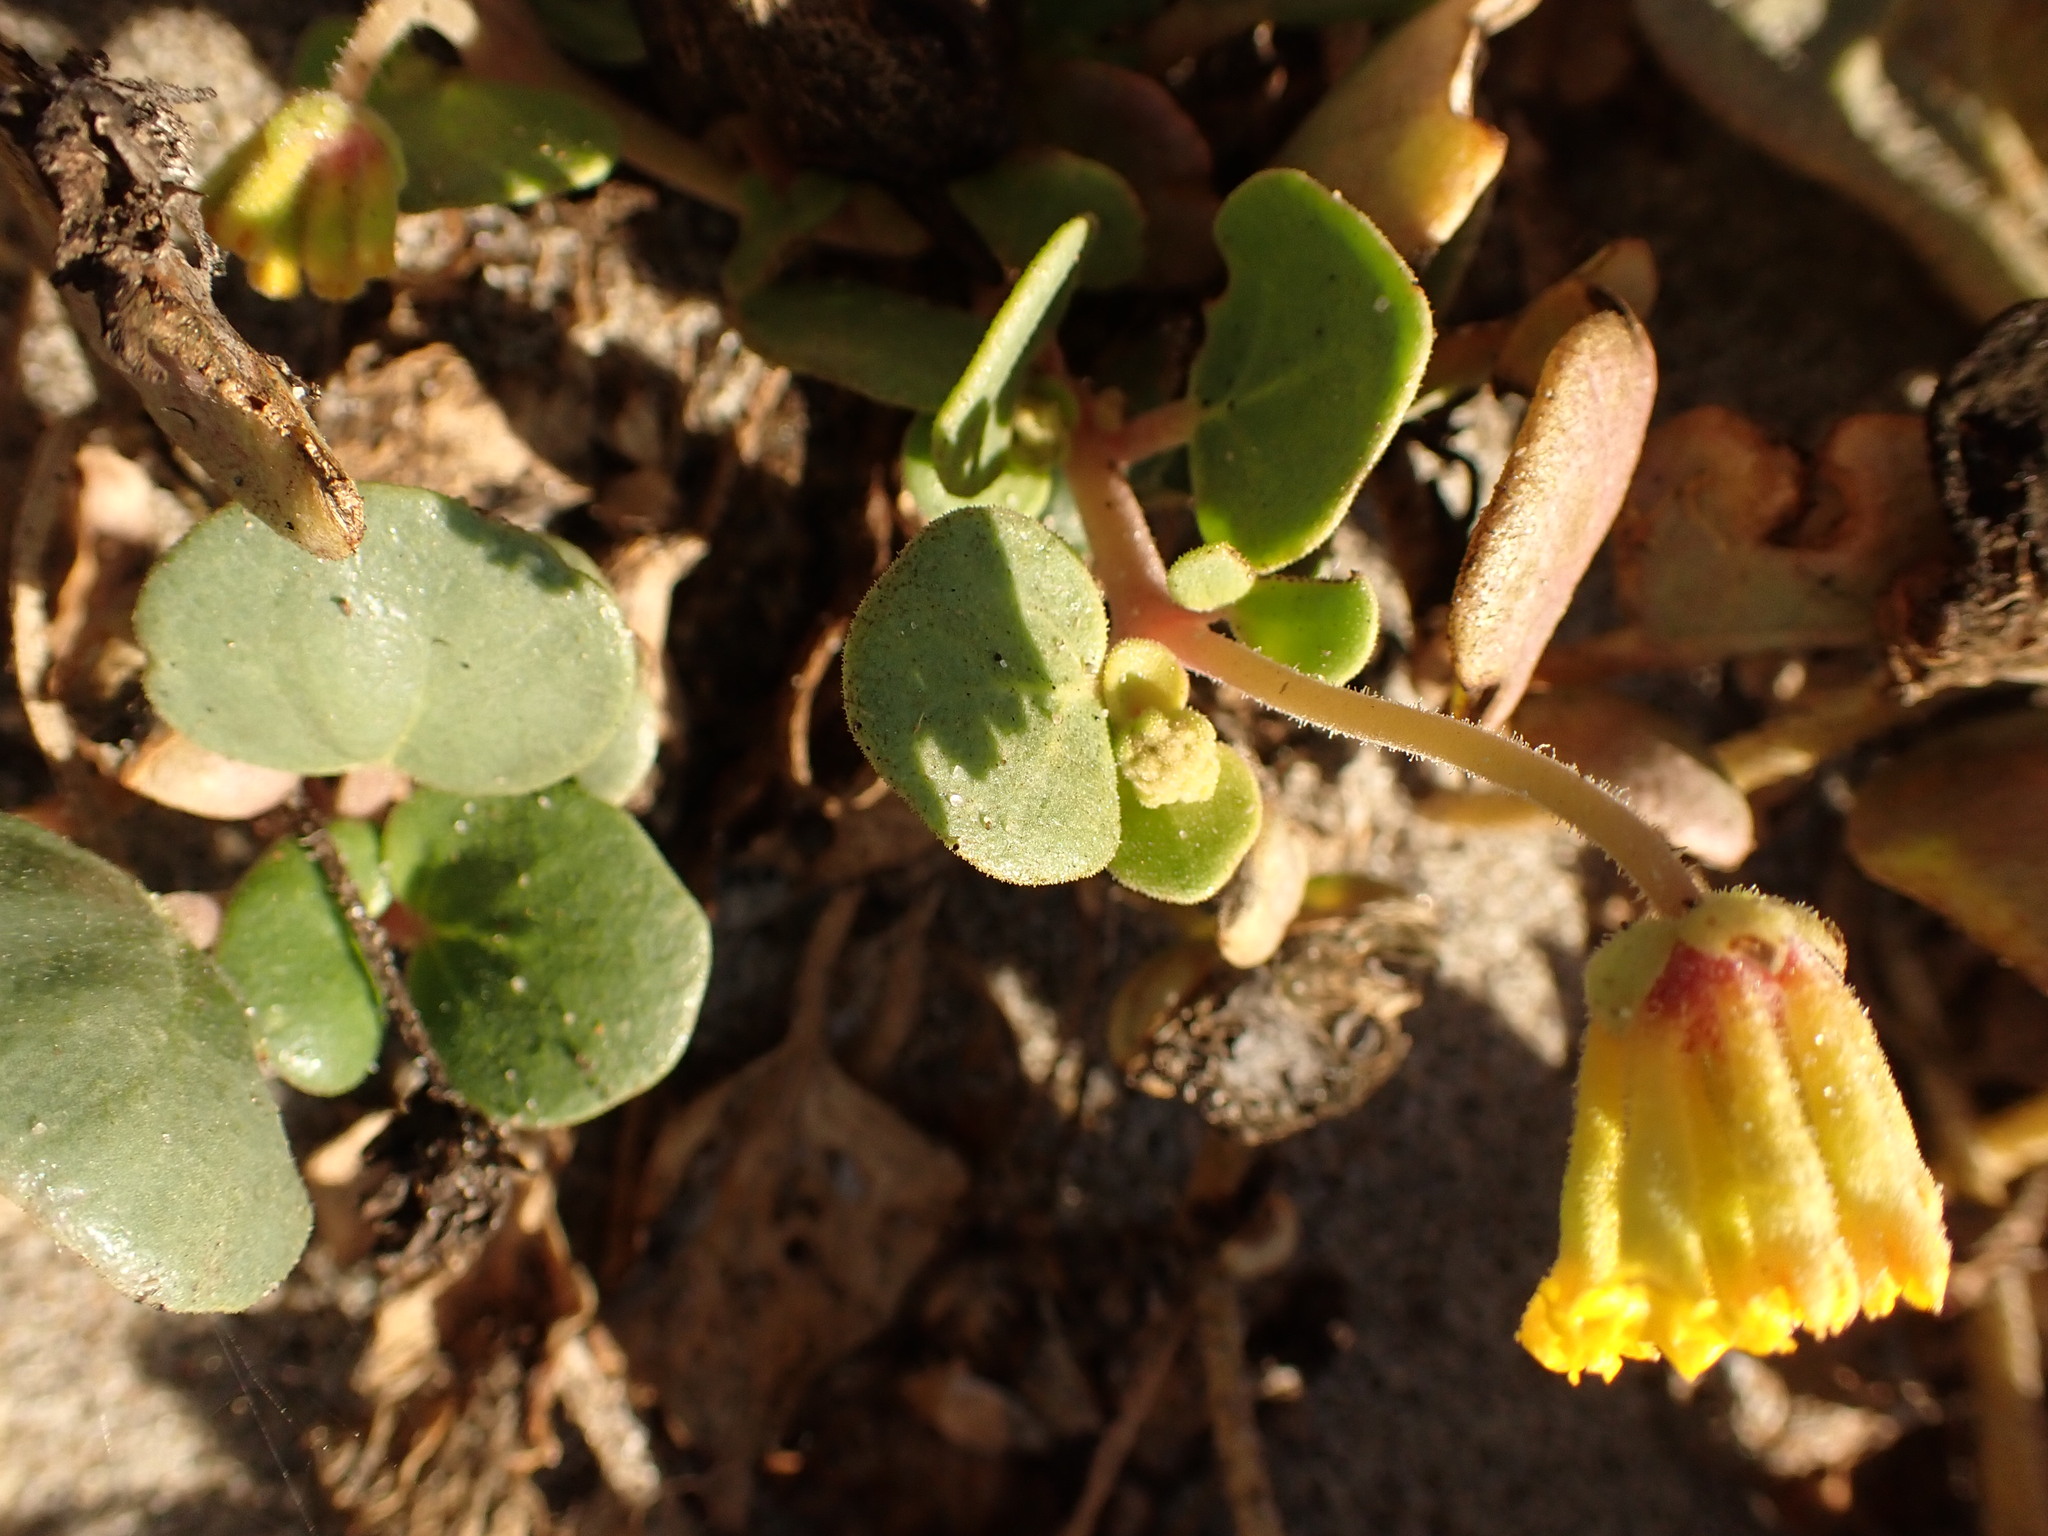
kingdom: Plantae
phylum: Tracheophyta
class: Magnoliopsida
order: Caryophyllales
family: Nyctaginaceae
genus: Abronia
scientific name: Abronia latifolia
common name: Yellow sand-verbena
